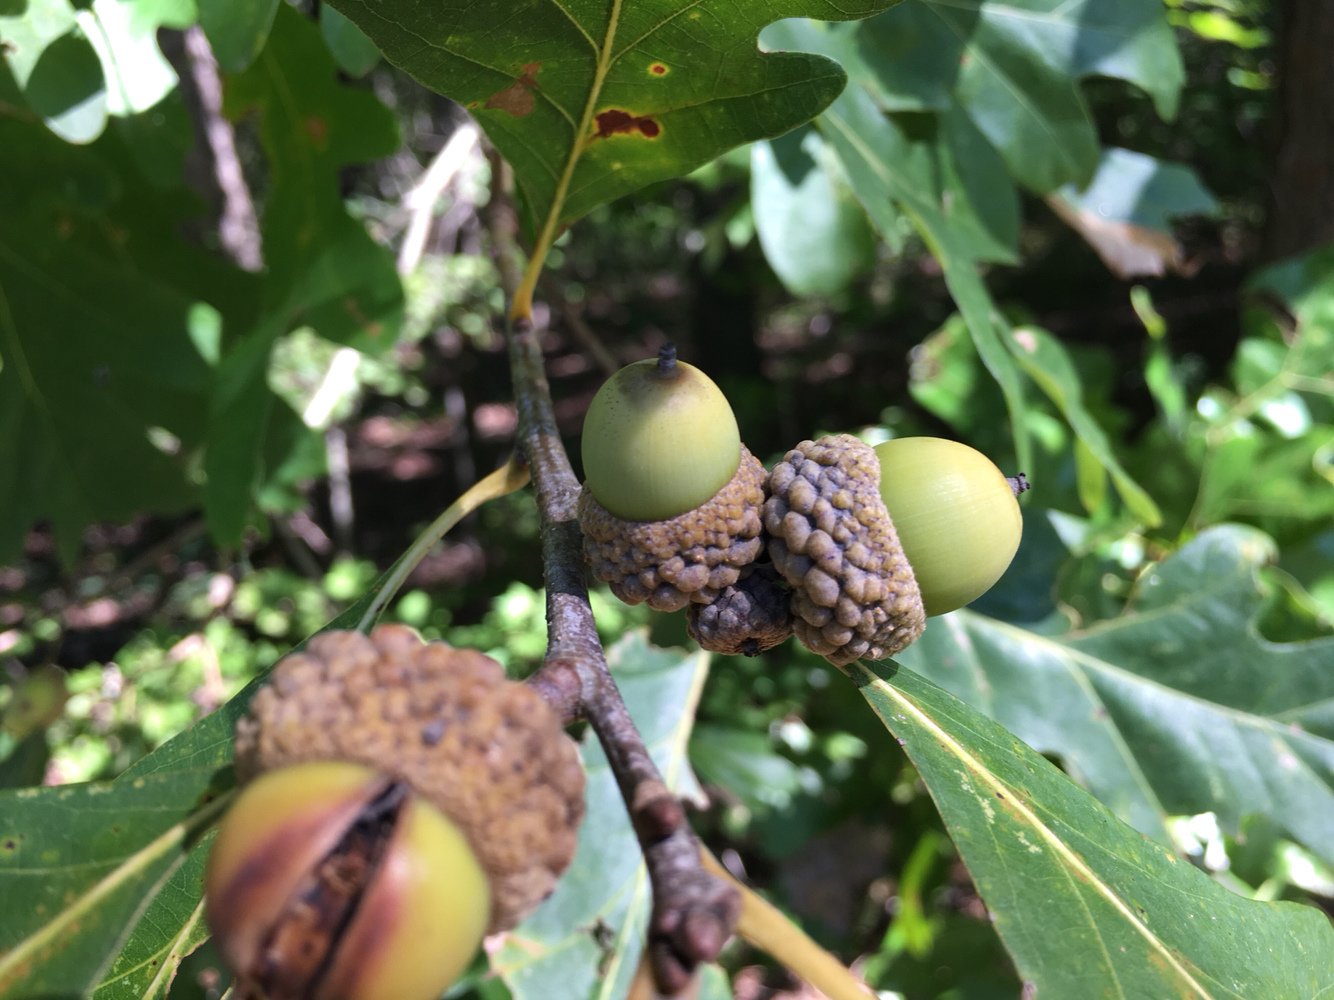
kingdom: Plantae
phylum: Tracheophyta
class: Magnoliopsida
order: Fagales
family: Fagaceae
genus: Quercus
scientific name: Quercus alba
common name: White oak
